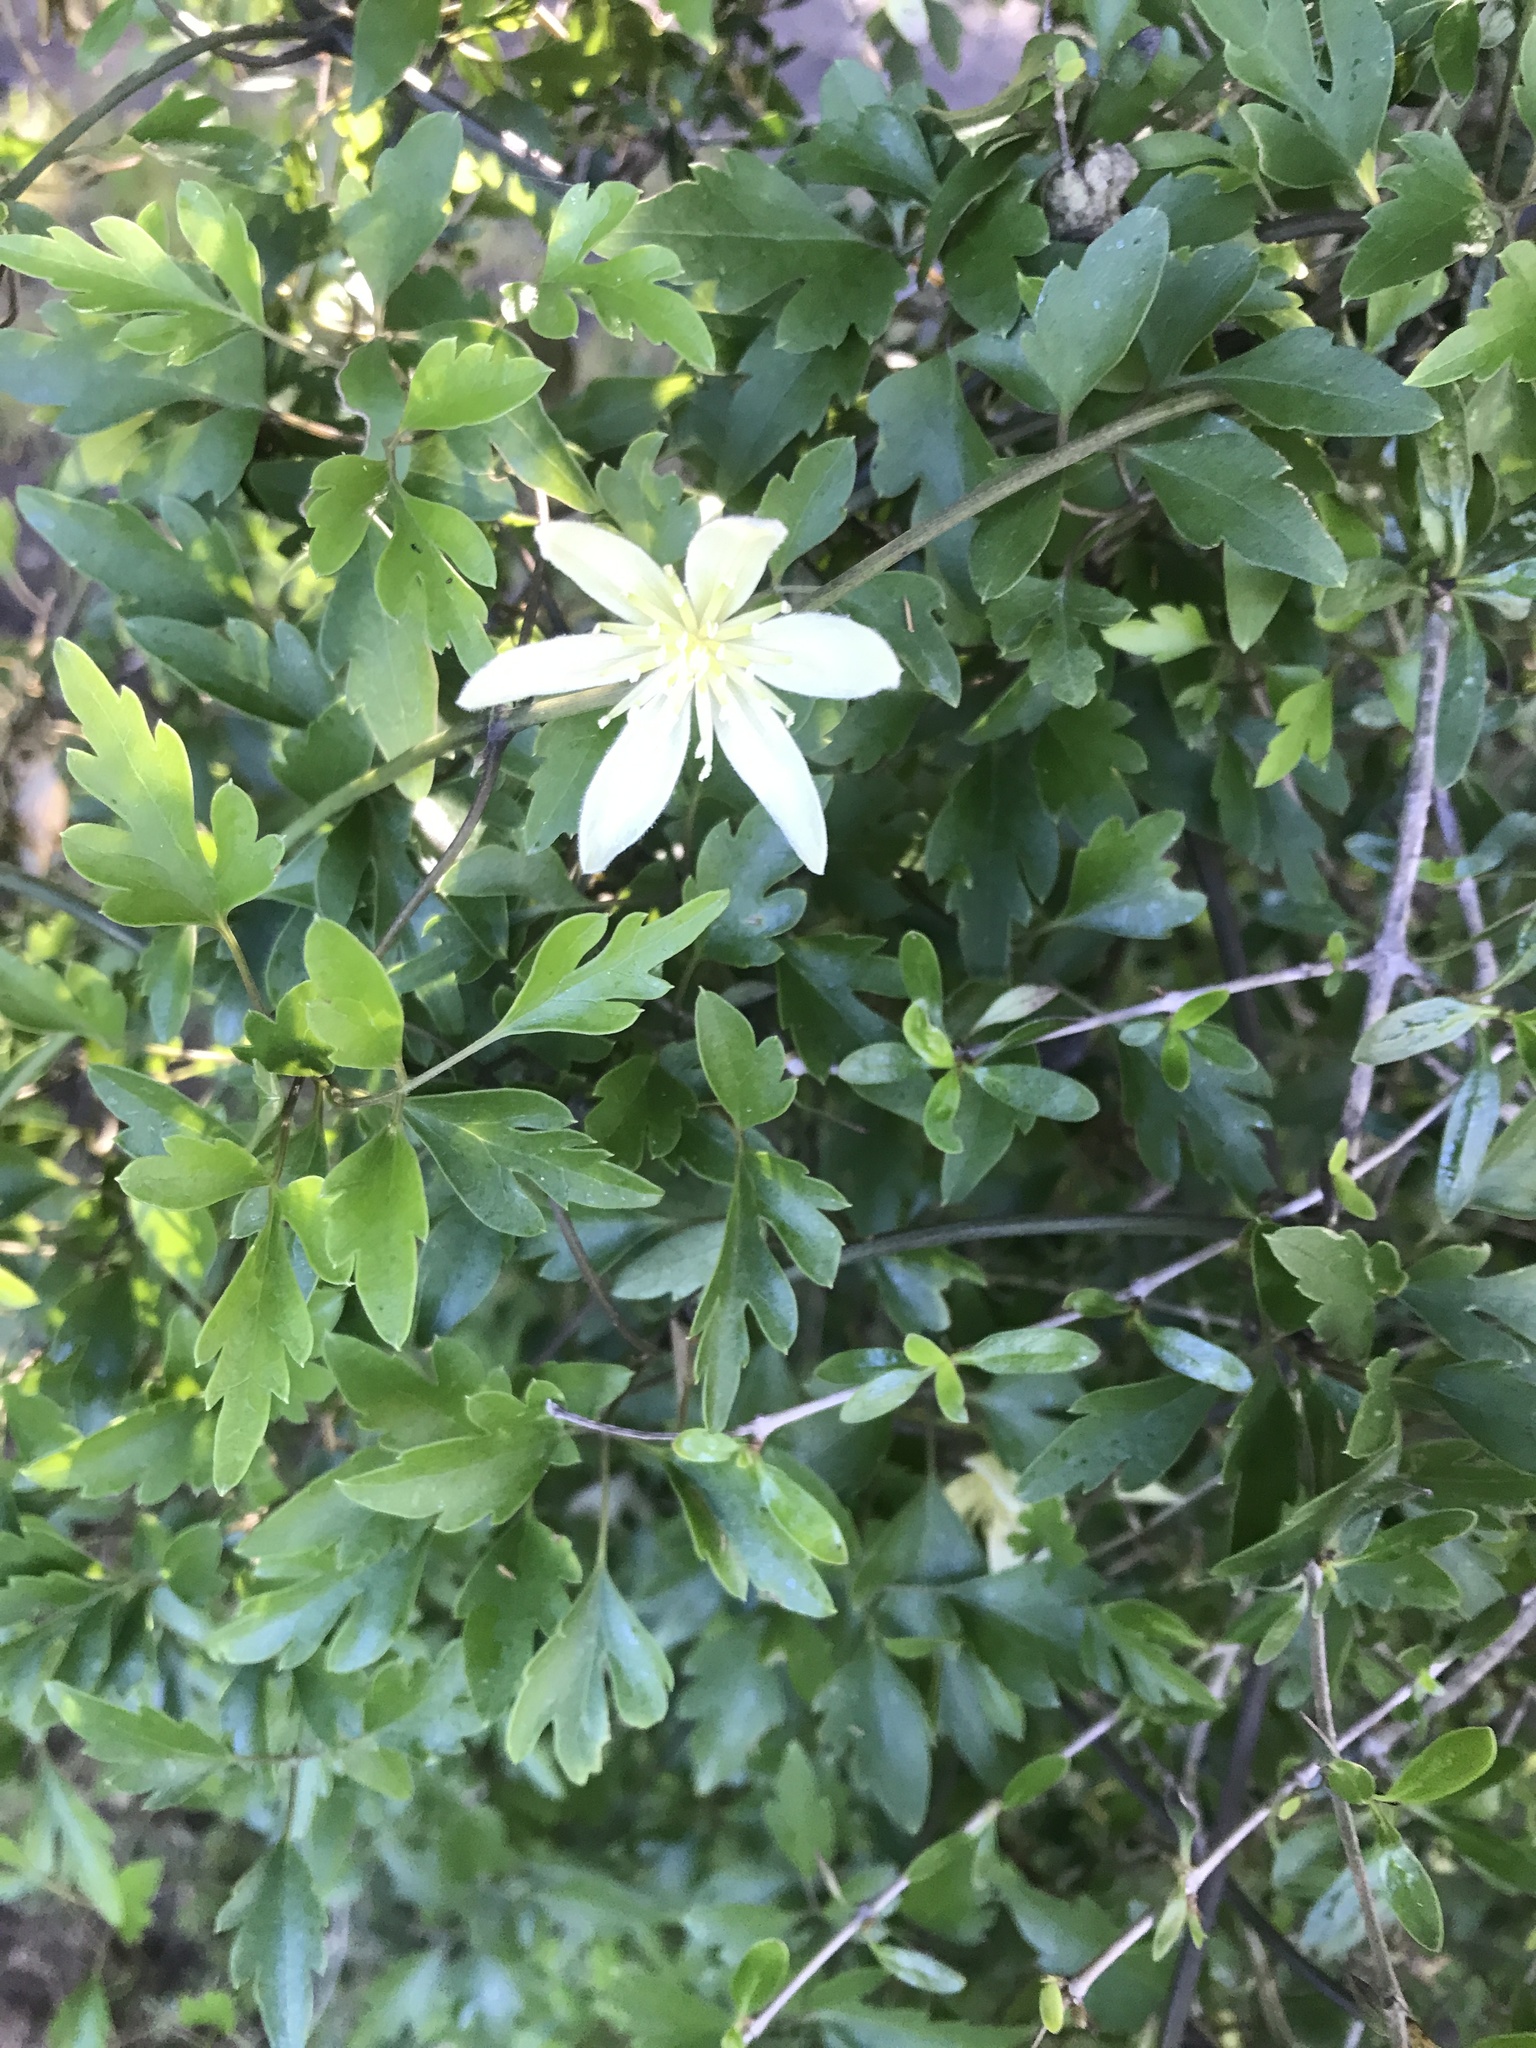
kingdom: Plantae
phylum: Tracheophyta
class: Magnoliopsida
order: Ranunculales
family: Ranunculaceae
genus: Clematis
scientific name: Clematis forsteri
